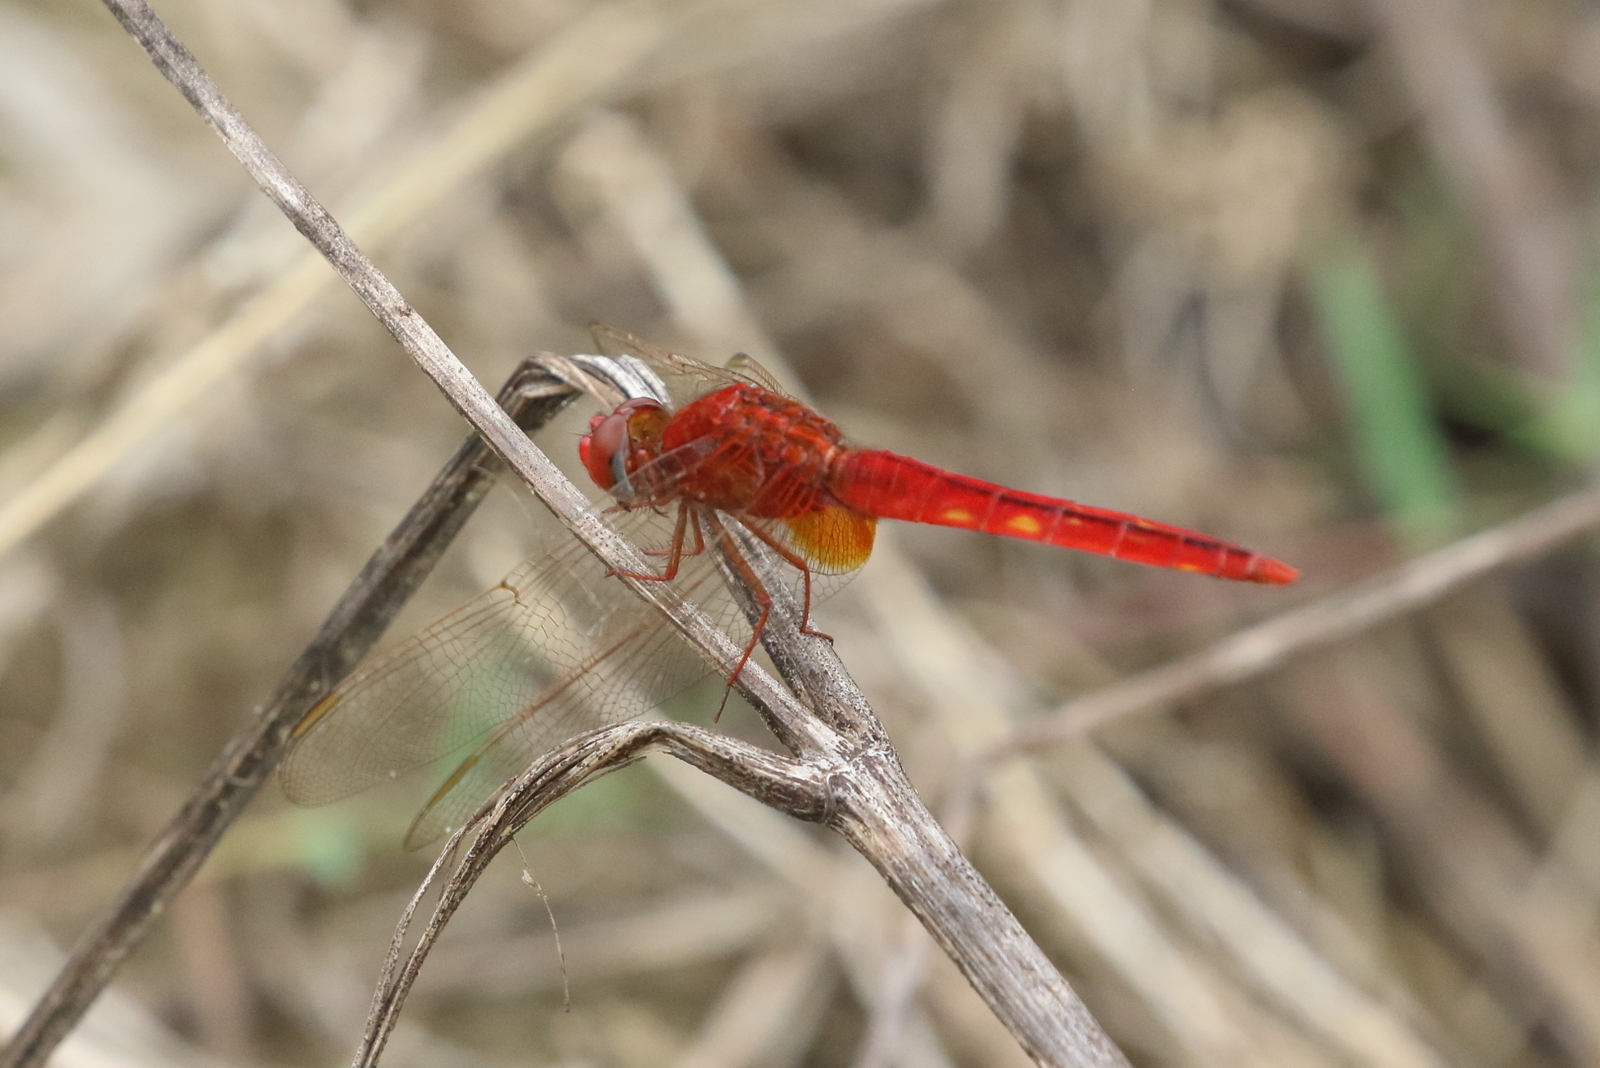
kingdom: Animalia
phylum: Arthropoda
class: Insecta
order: Odonata
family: Libellulidae
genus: Crocothemis
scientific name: Crocothemis servilia
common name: Scarlet skimmer
